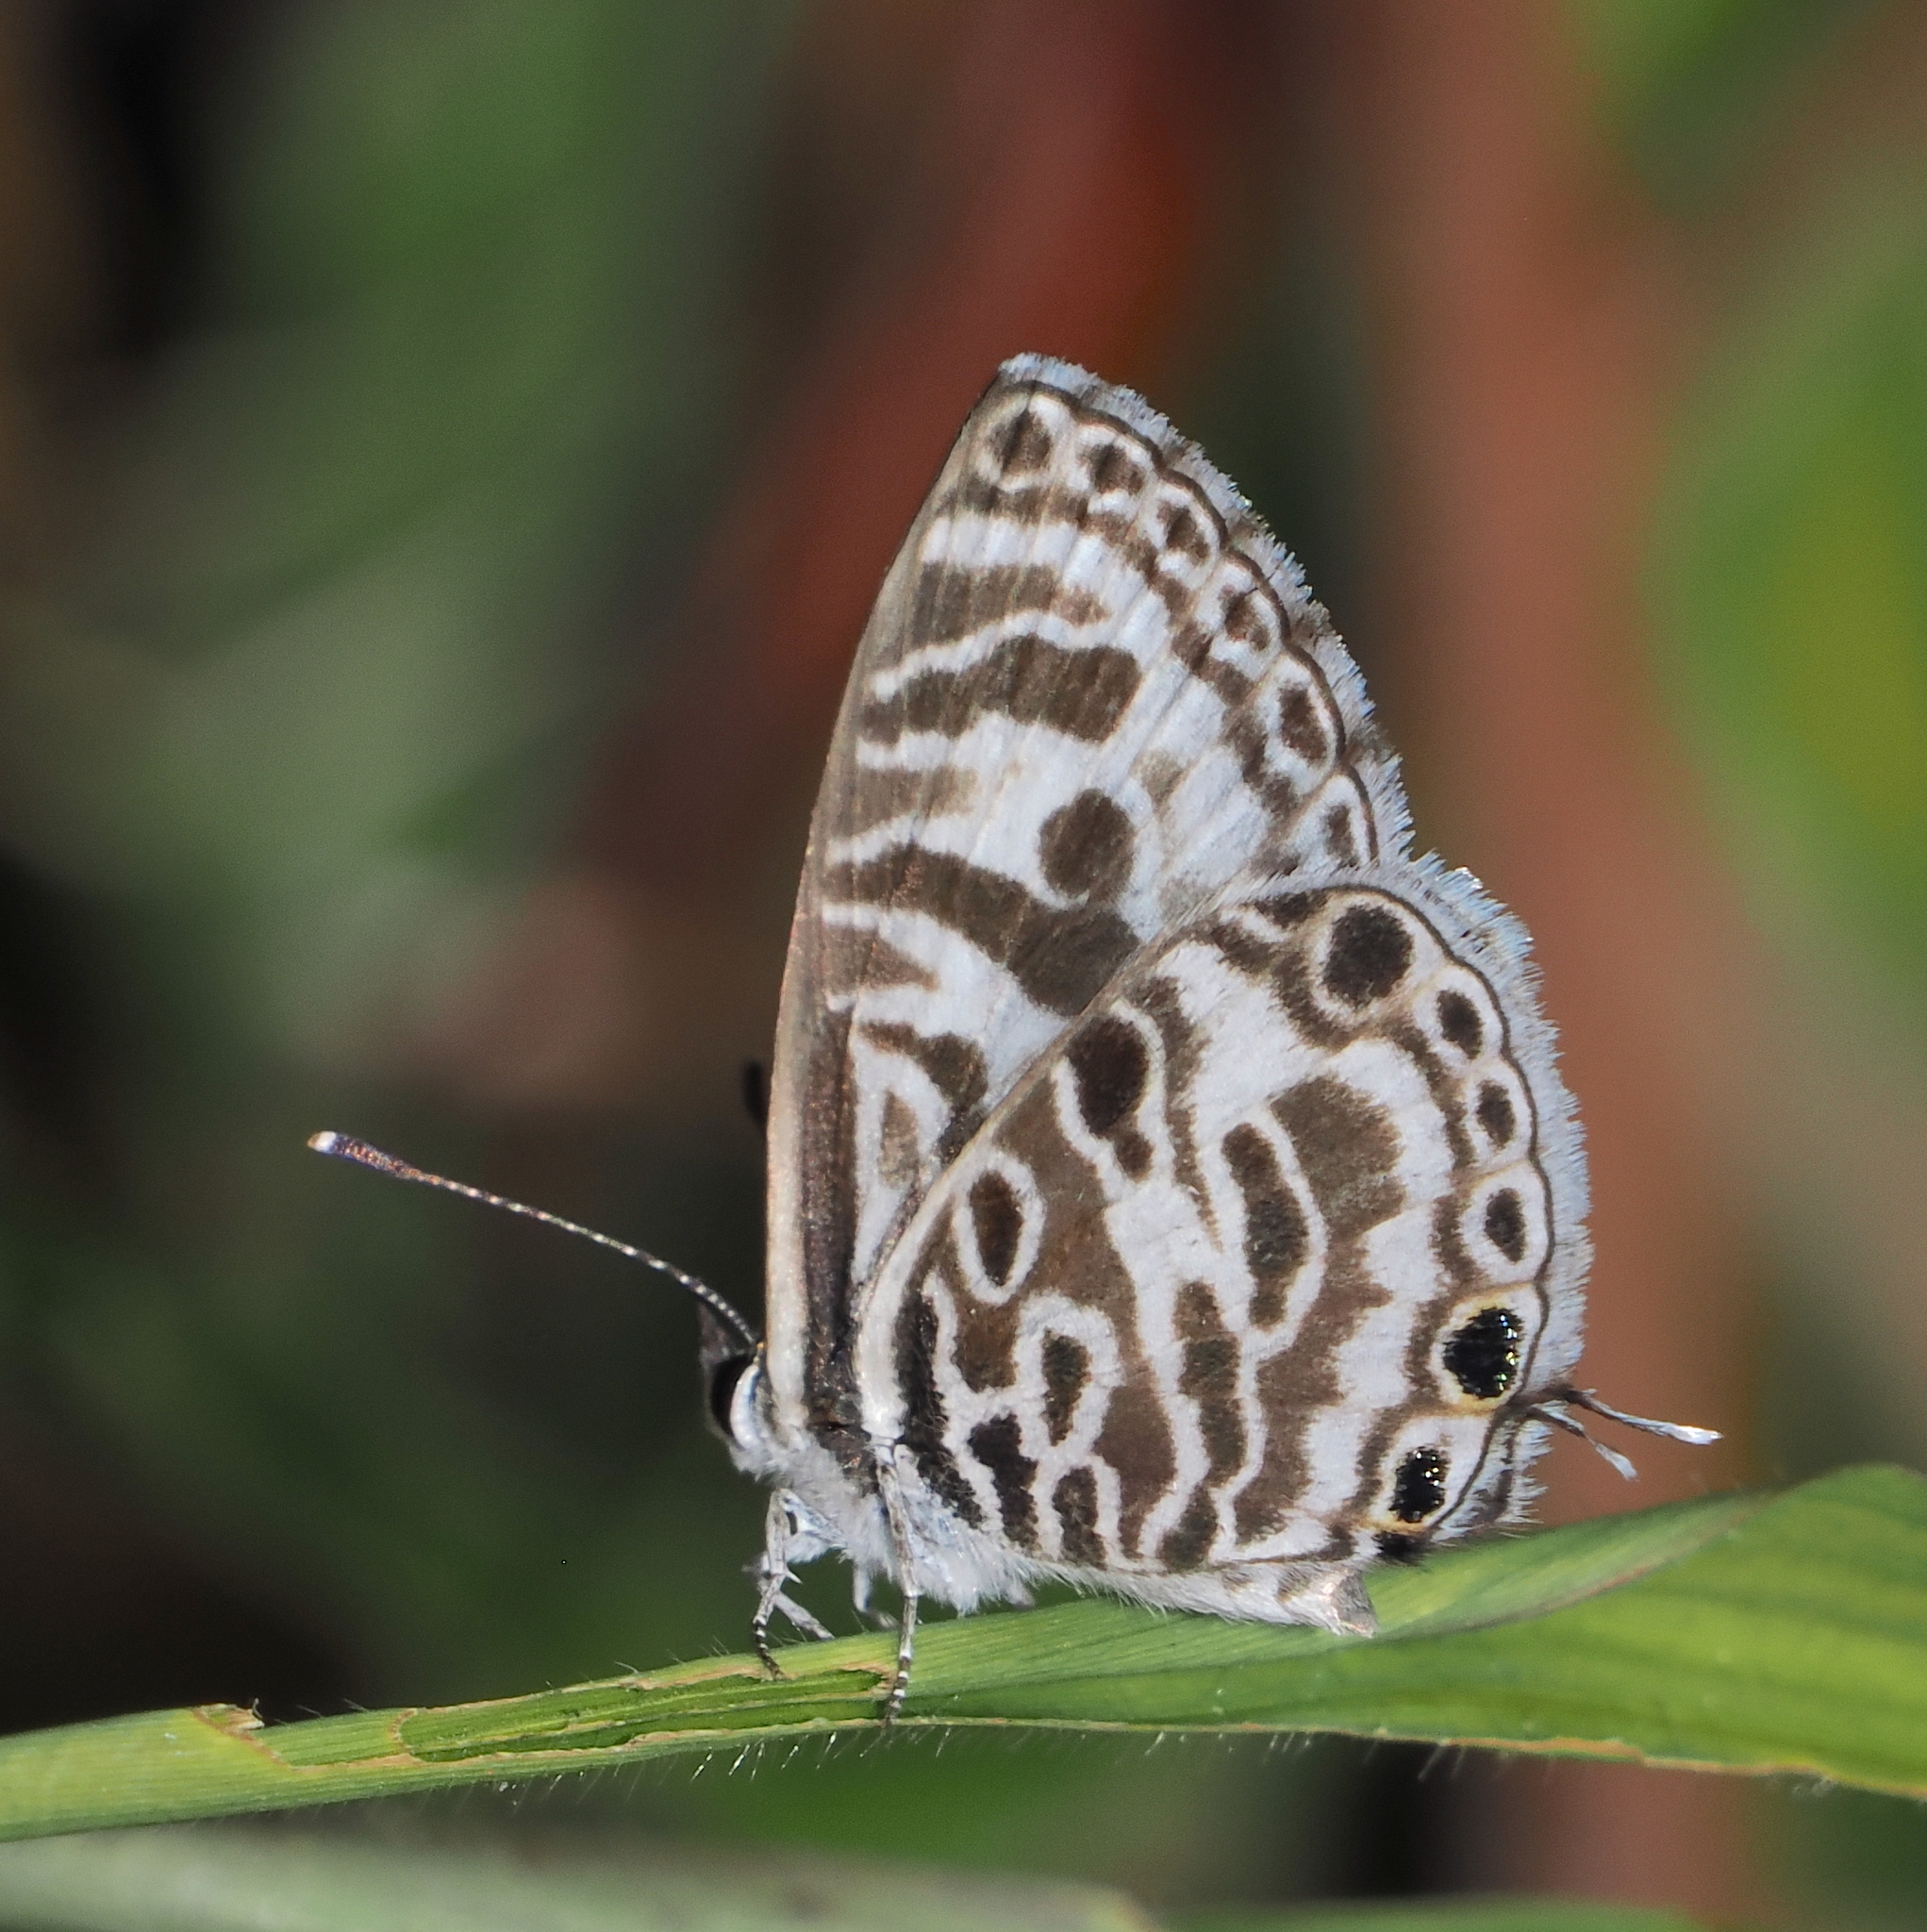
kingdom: Animalia
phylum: Arthropoda
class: Insecta
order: Lepidoptera
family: Lycaenidae
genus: Leptotes
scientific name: Leptotes plinius
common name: Zebra blue
